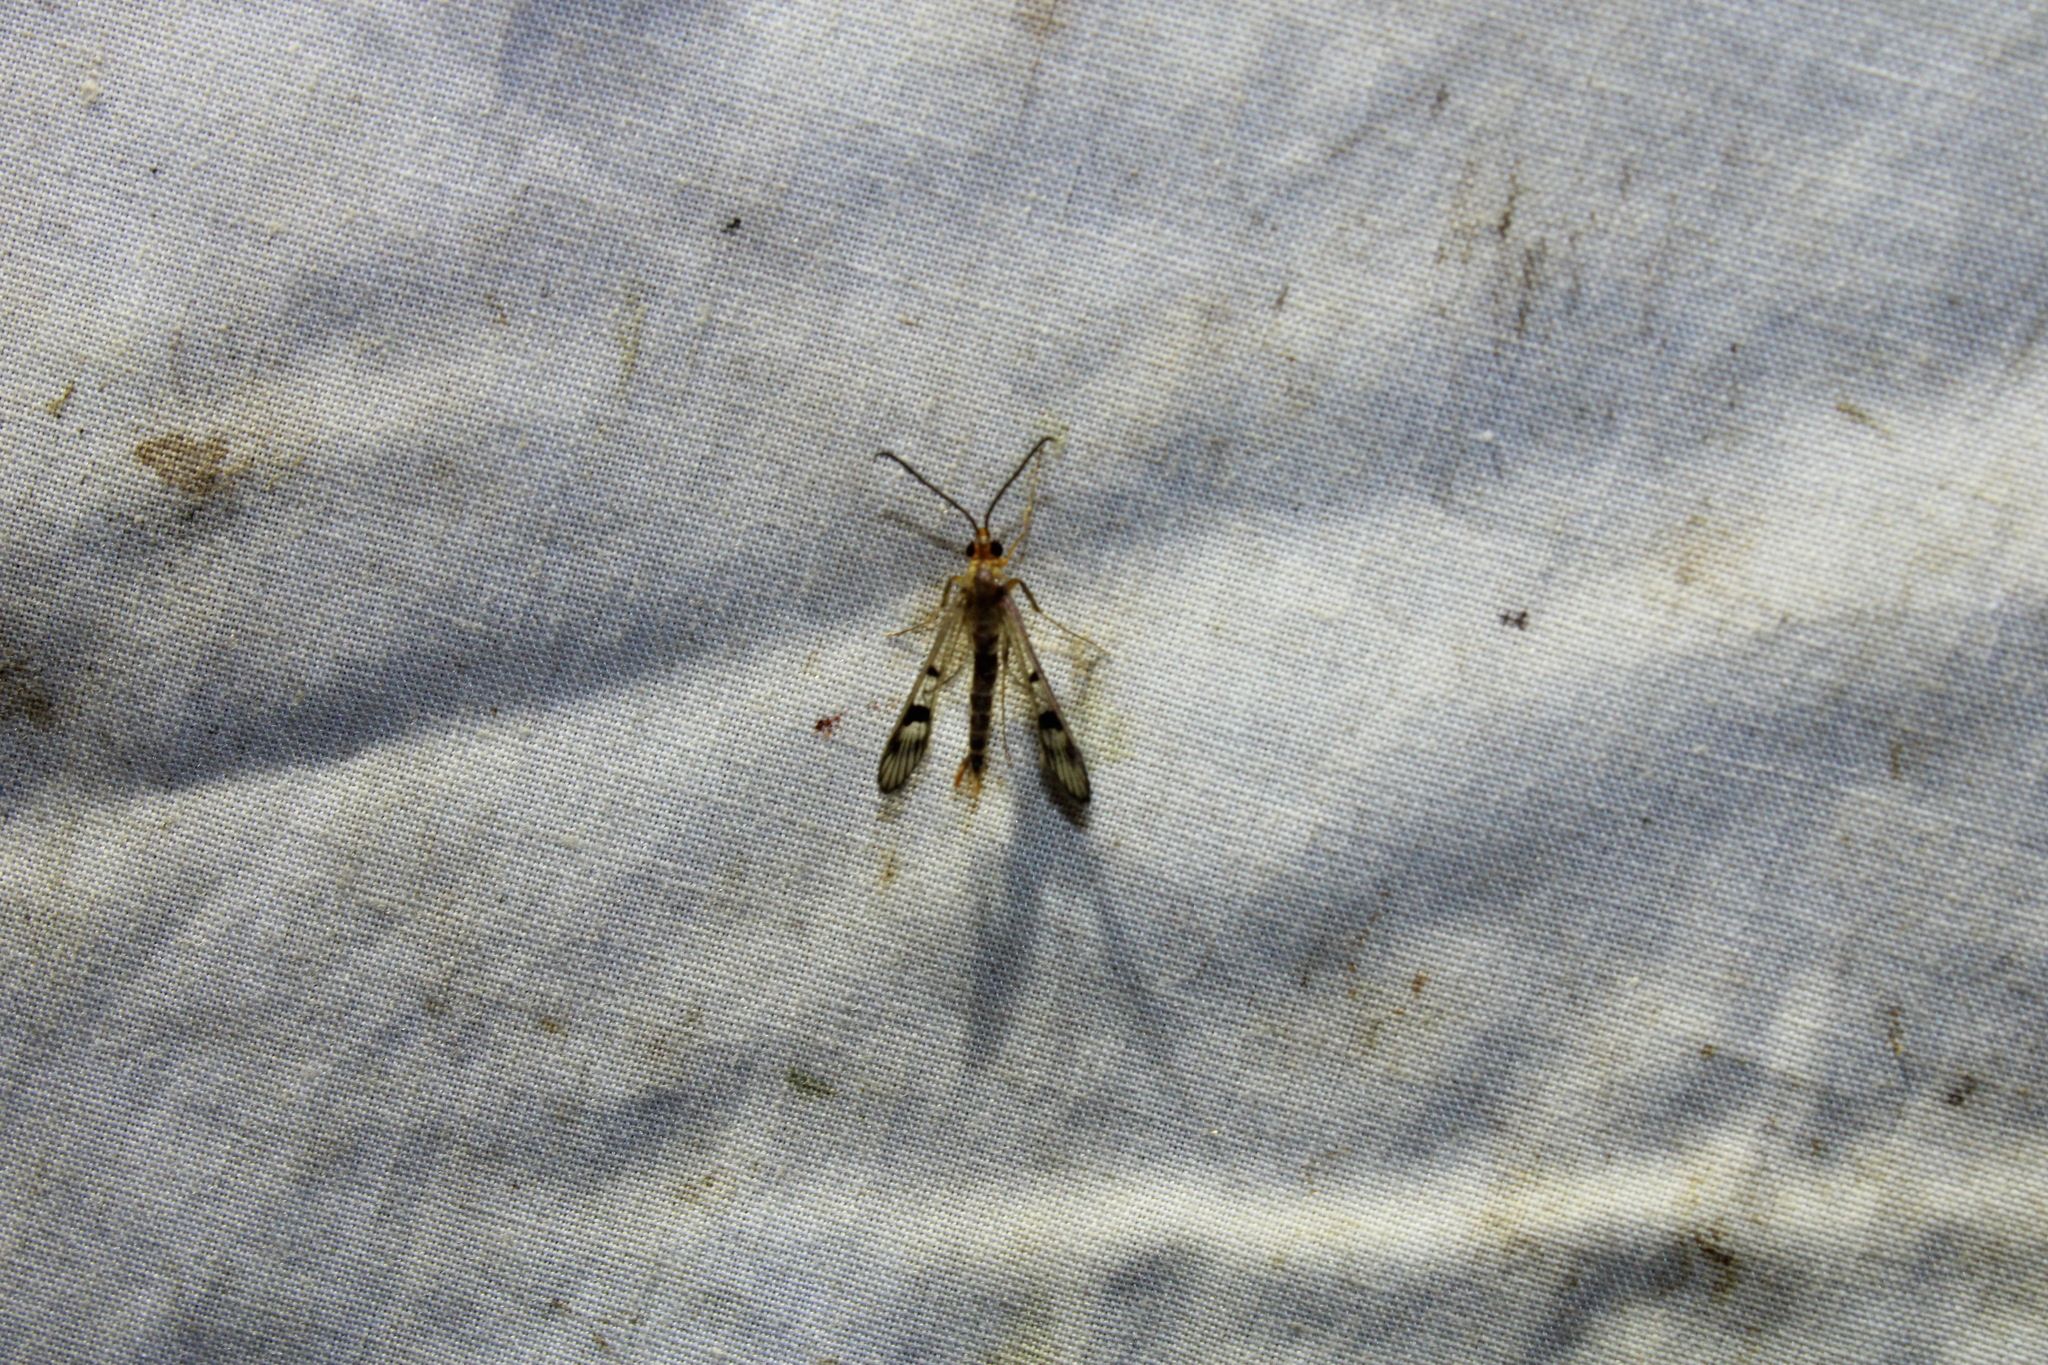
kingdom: Animalia
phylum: Arthropoda
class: Insecta
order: Lepidoptera
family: Sesiidae
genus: Synanthedon
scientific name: Synanthedon acerni
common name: Maple callus borer moth
